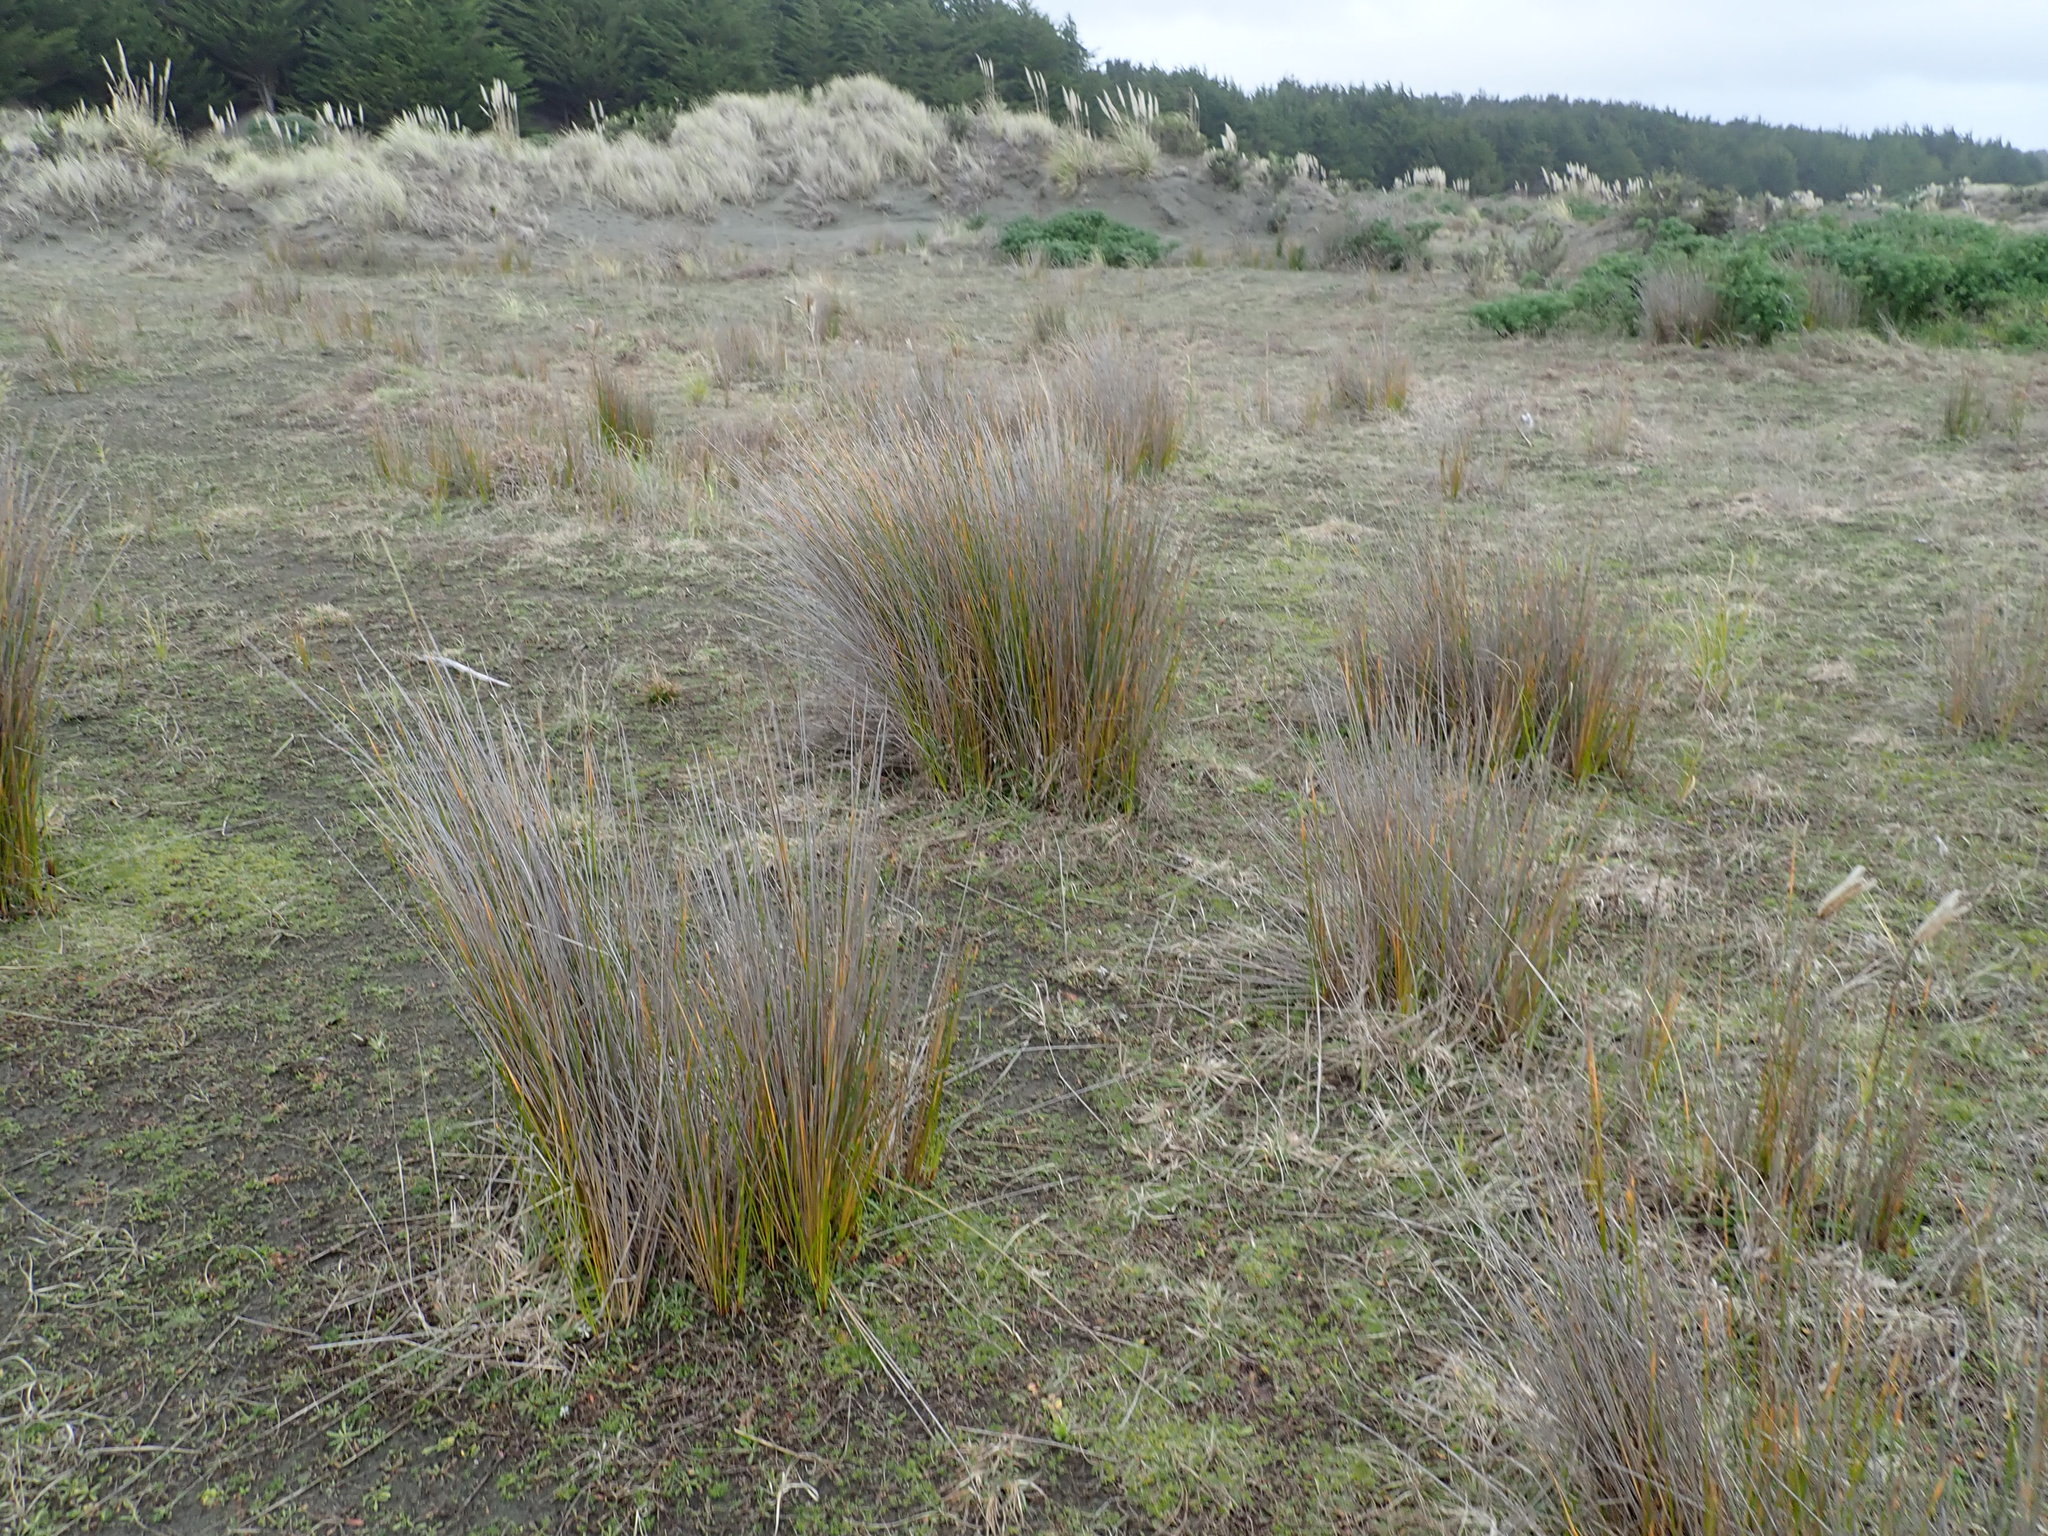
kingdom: Plantae
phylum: Tracheophyta
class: Liliopsida
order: Poales
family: Cyperaceae
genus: Ficinia
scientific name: Ficinia nodosa
